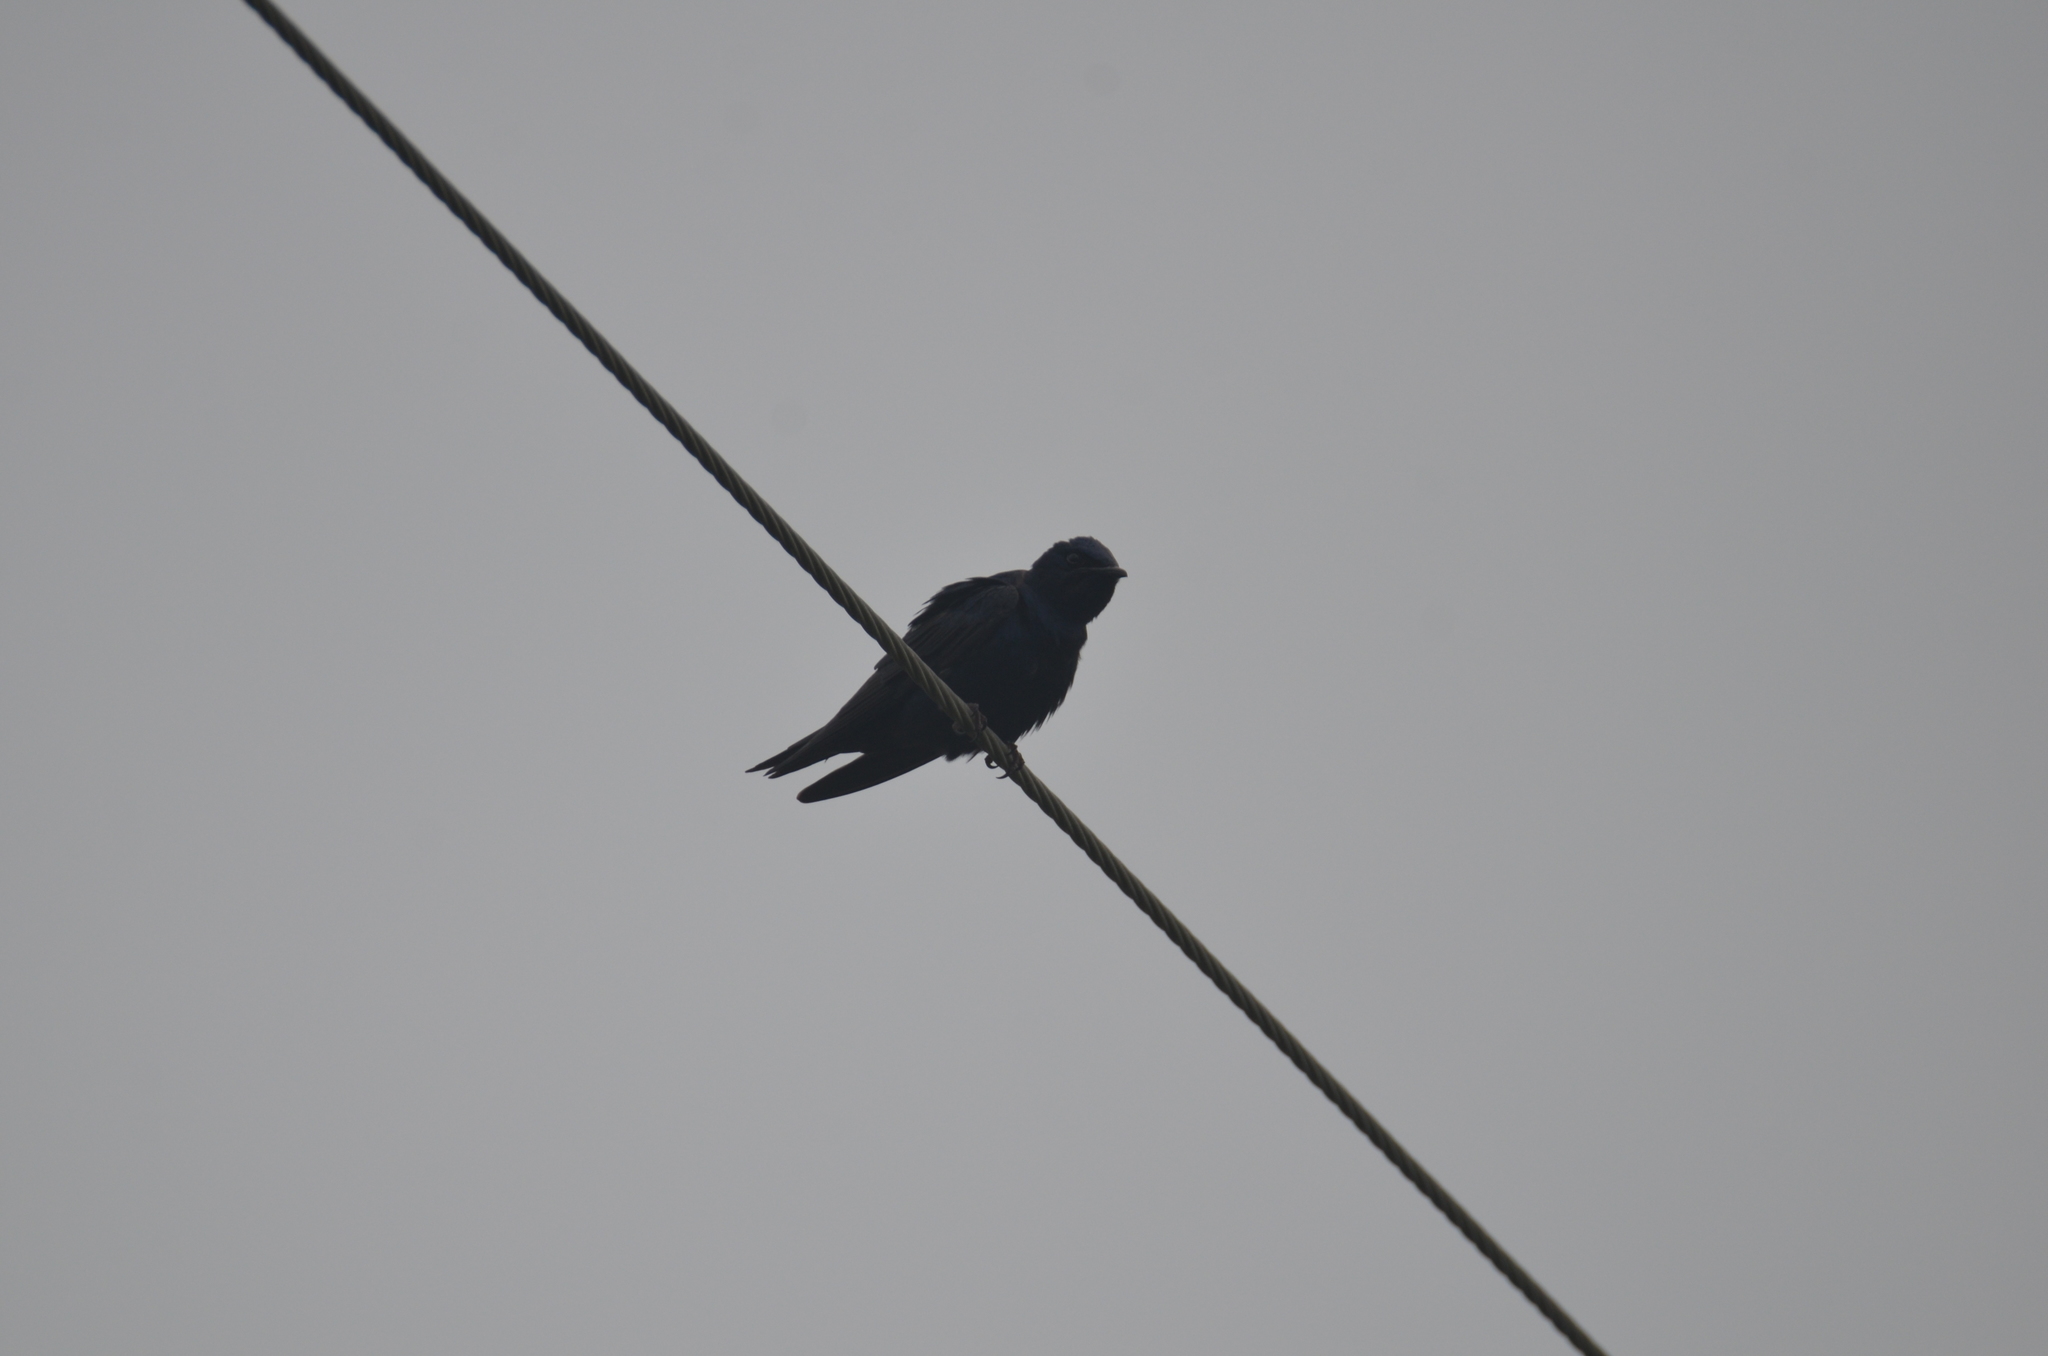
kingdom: Animalia
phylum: Chordata
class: Aves
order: Passeriformes
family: Hirundinidae
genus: Progne
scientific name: Progne subis
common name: Purple martin
